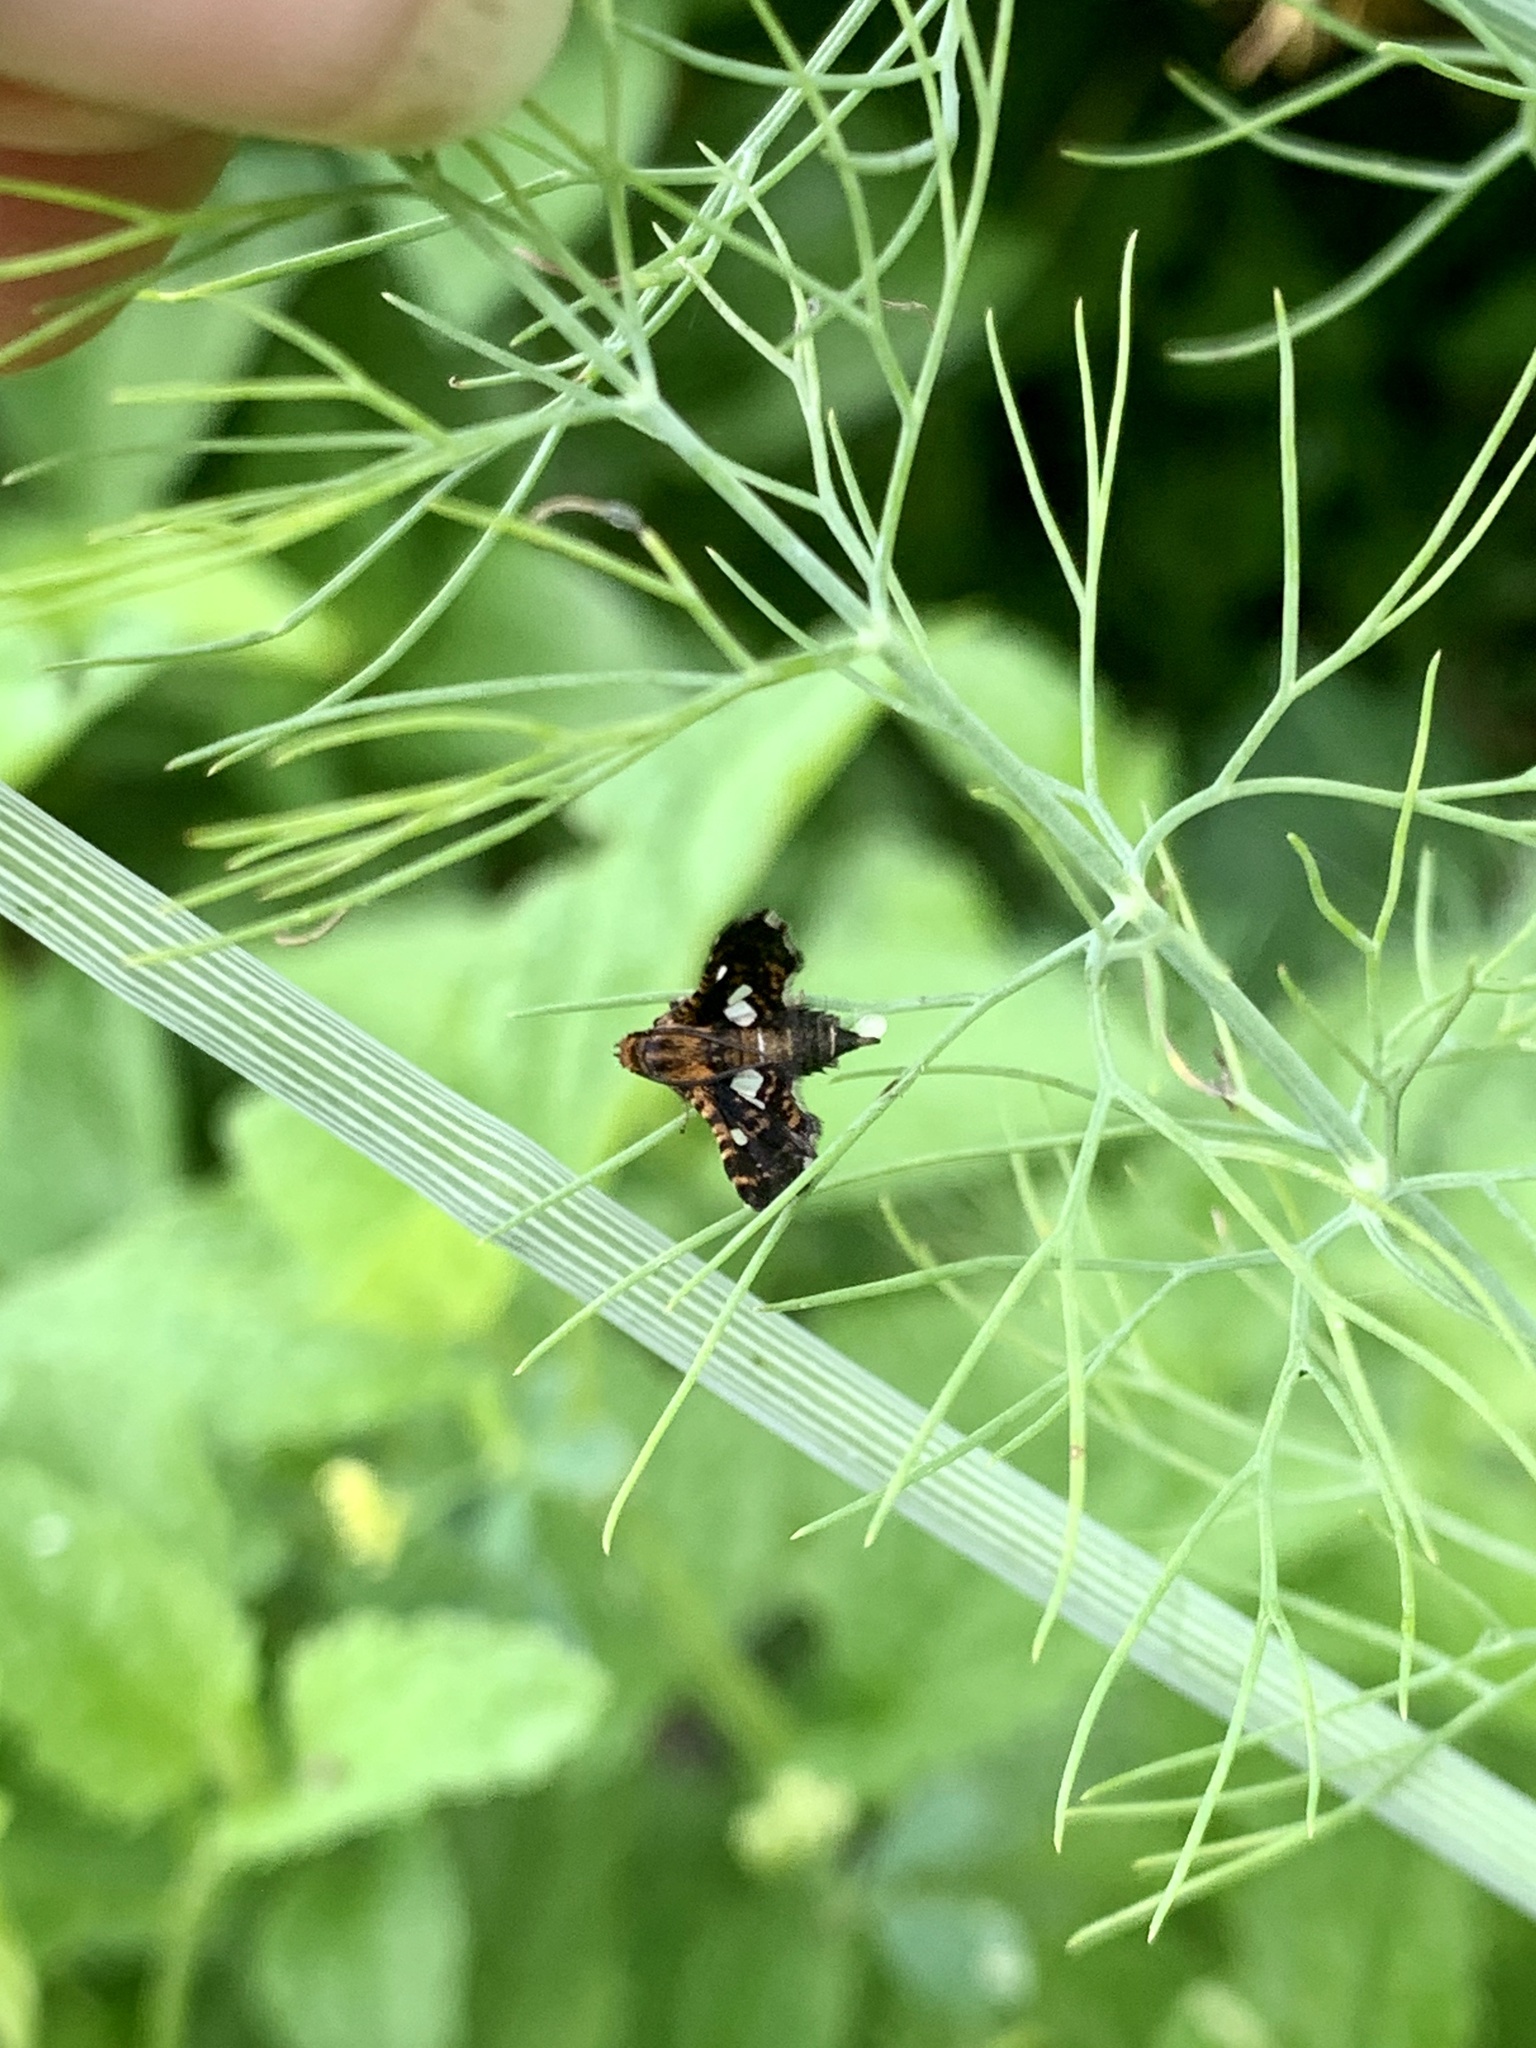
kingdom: Animalia
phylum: Arthropoda
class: Insecta
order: Lepidoptera
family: Thyrididae
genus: Thyris
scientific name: Thyris maculata
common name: Spotted thyris moth
